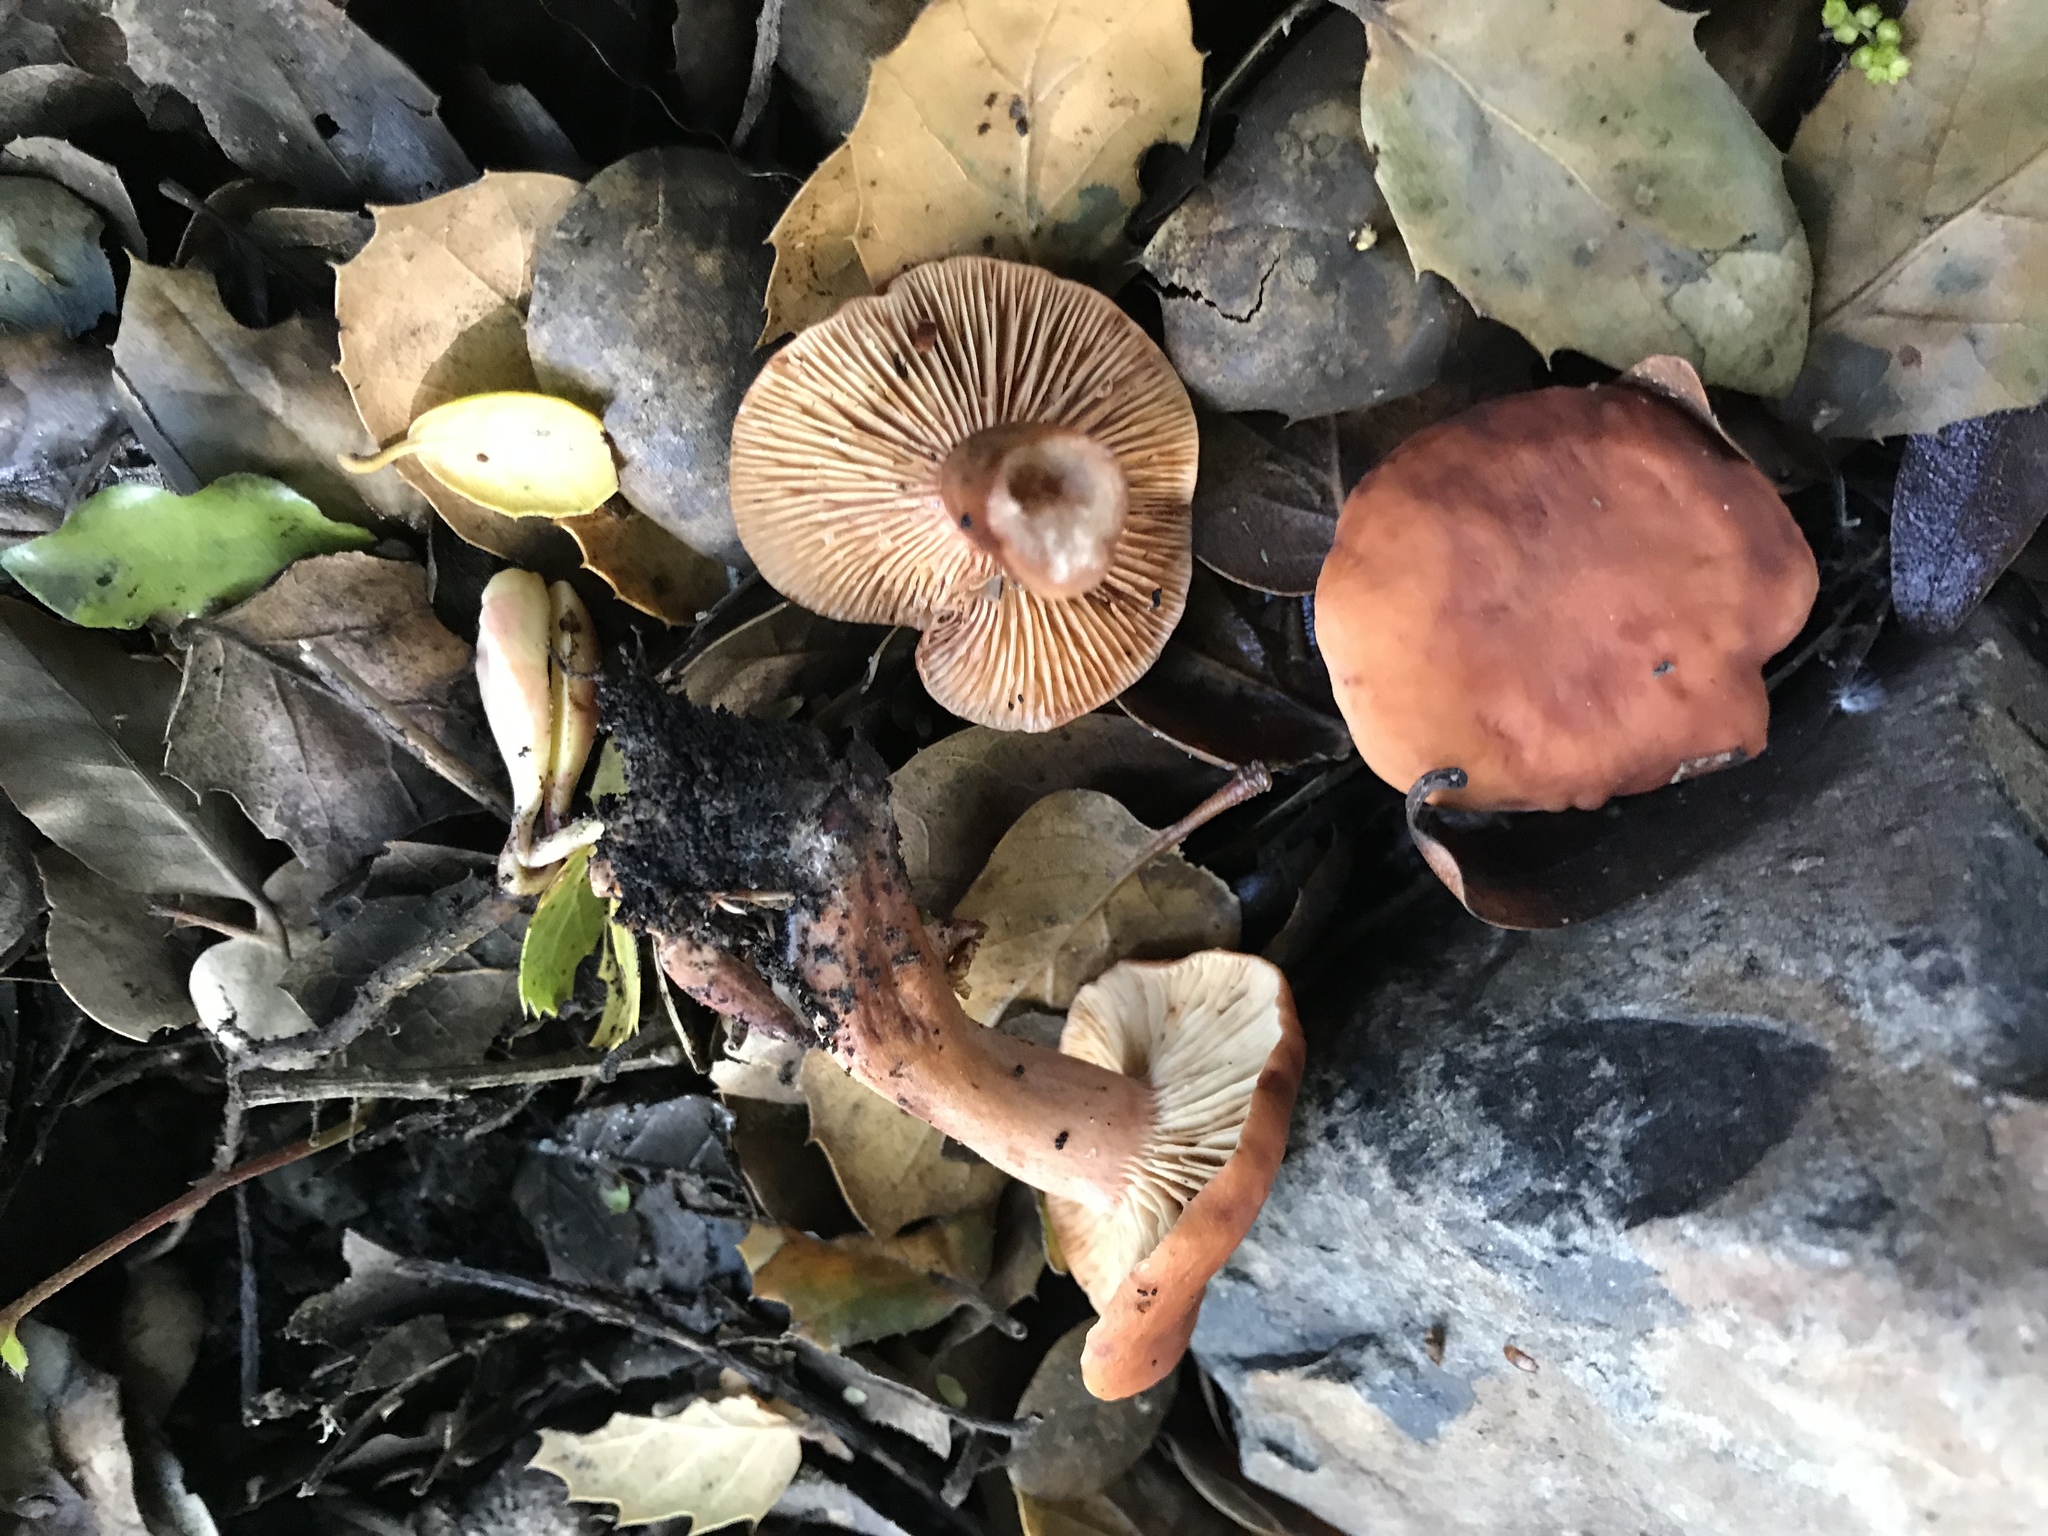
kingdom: Fungi
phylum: Basidiomycota
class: Agaricomycetes
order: Russulales
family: Russulaceae
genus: Lactarius
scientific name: Lactarius rubidus
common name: Candy cap
